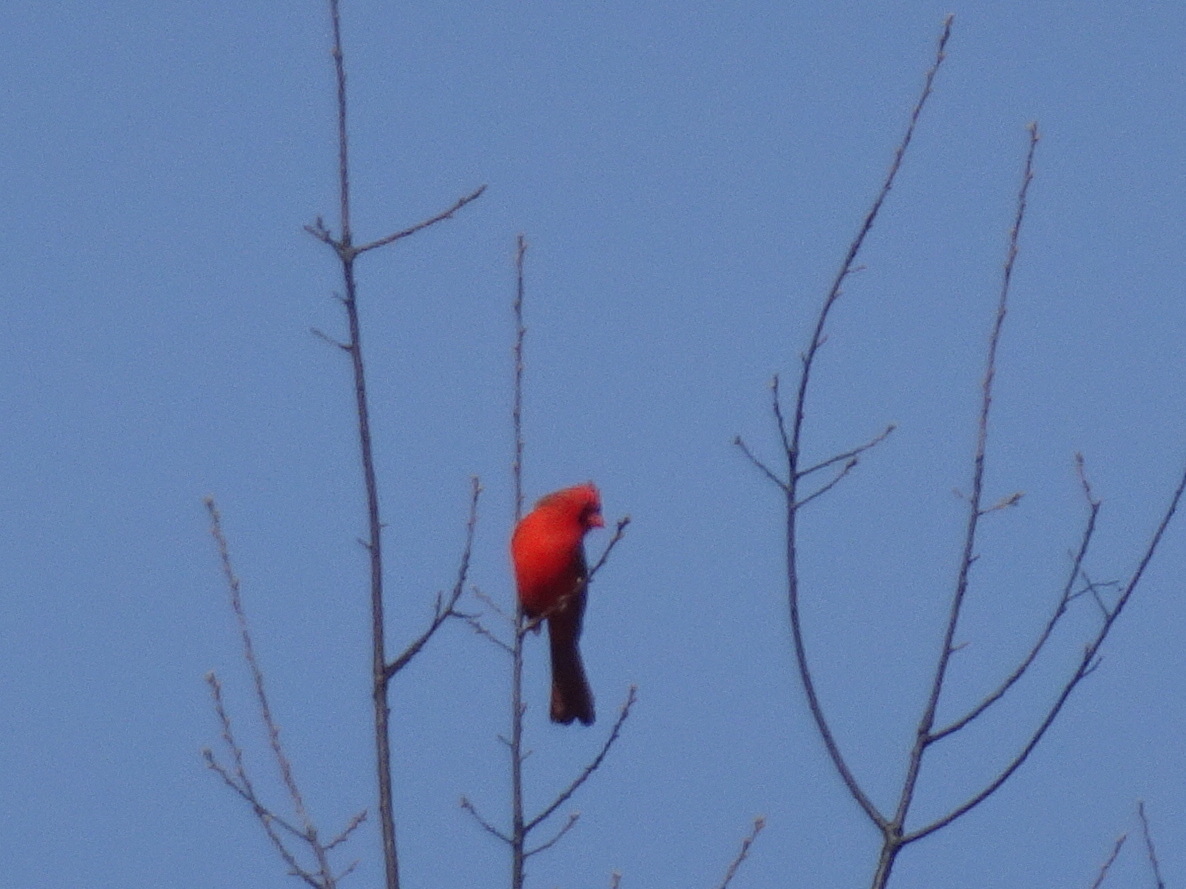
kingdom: Animalia
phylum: Chordata
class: Aves
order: Passeriformes
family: Cardinalidae
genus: Cardinalis
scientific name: Cardinalis cardinalis
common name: Northern cardinal
